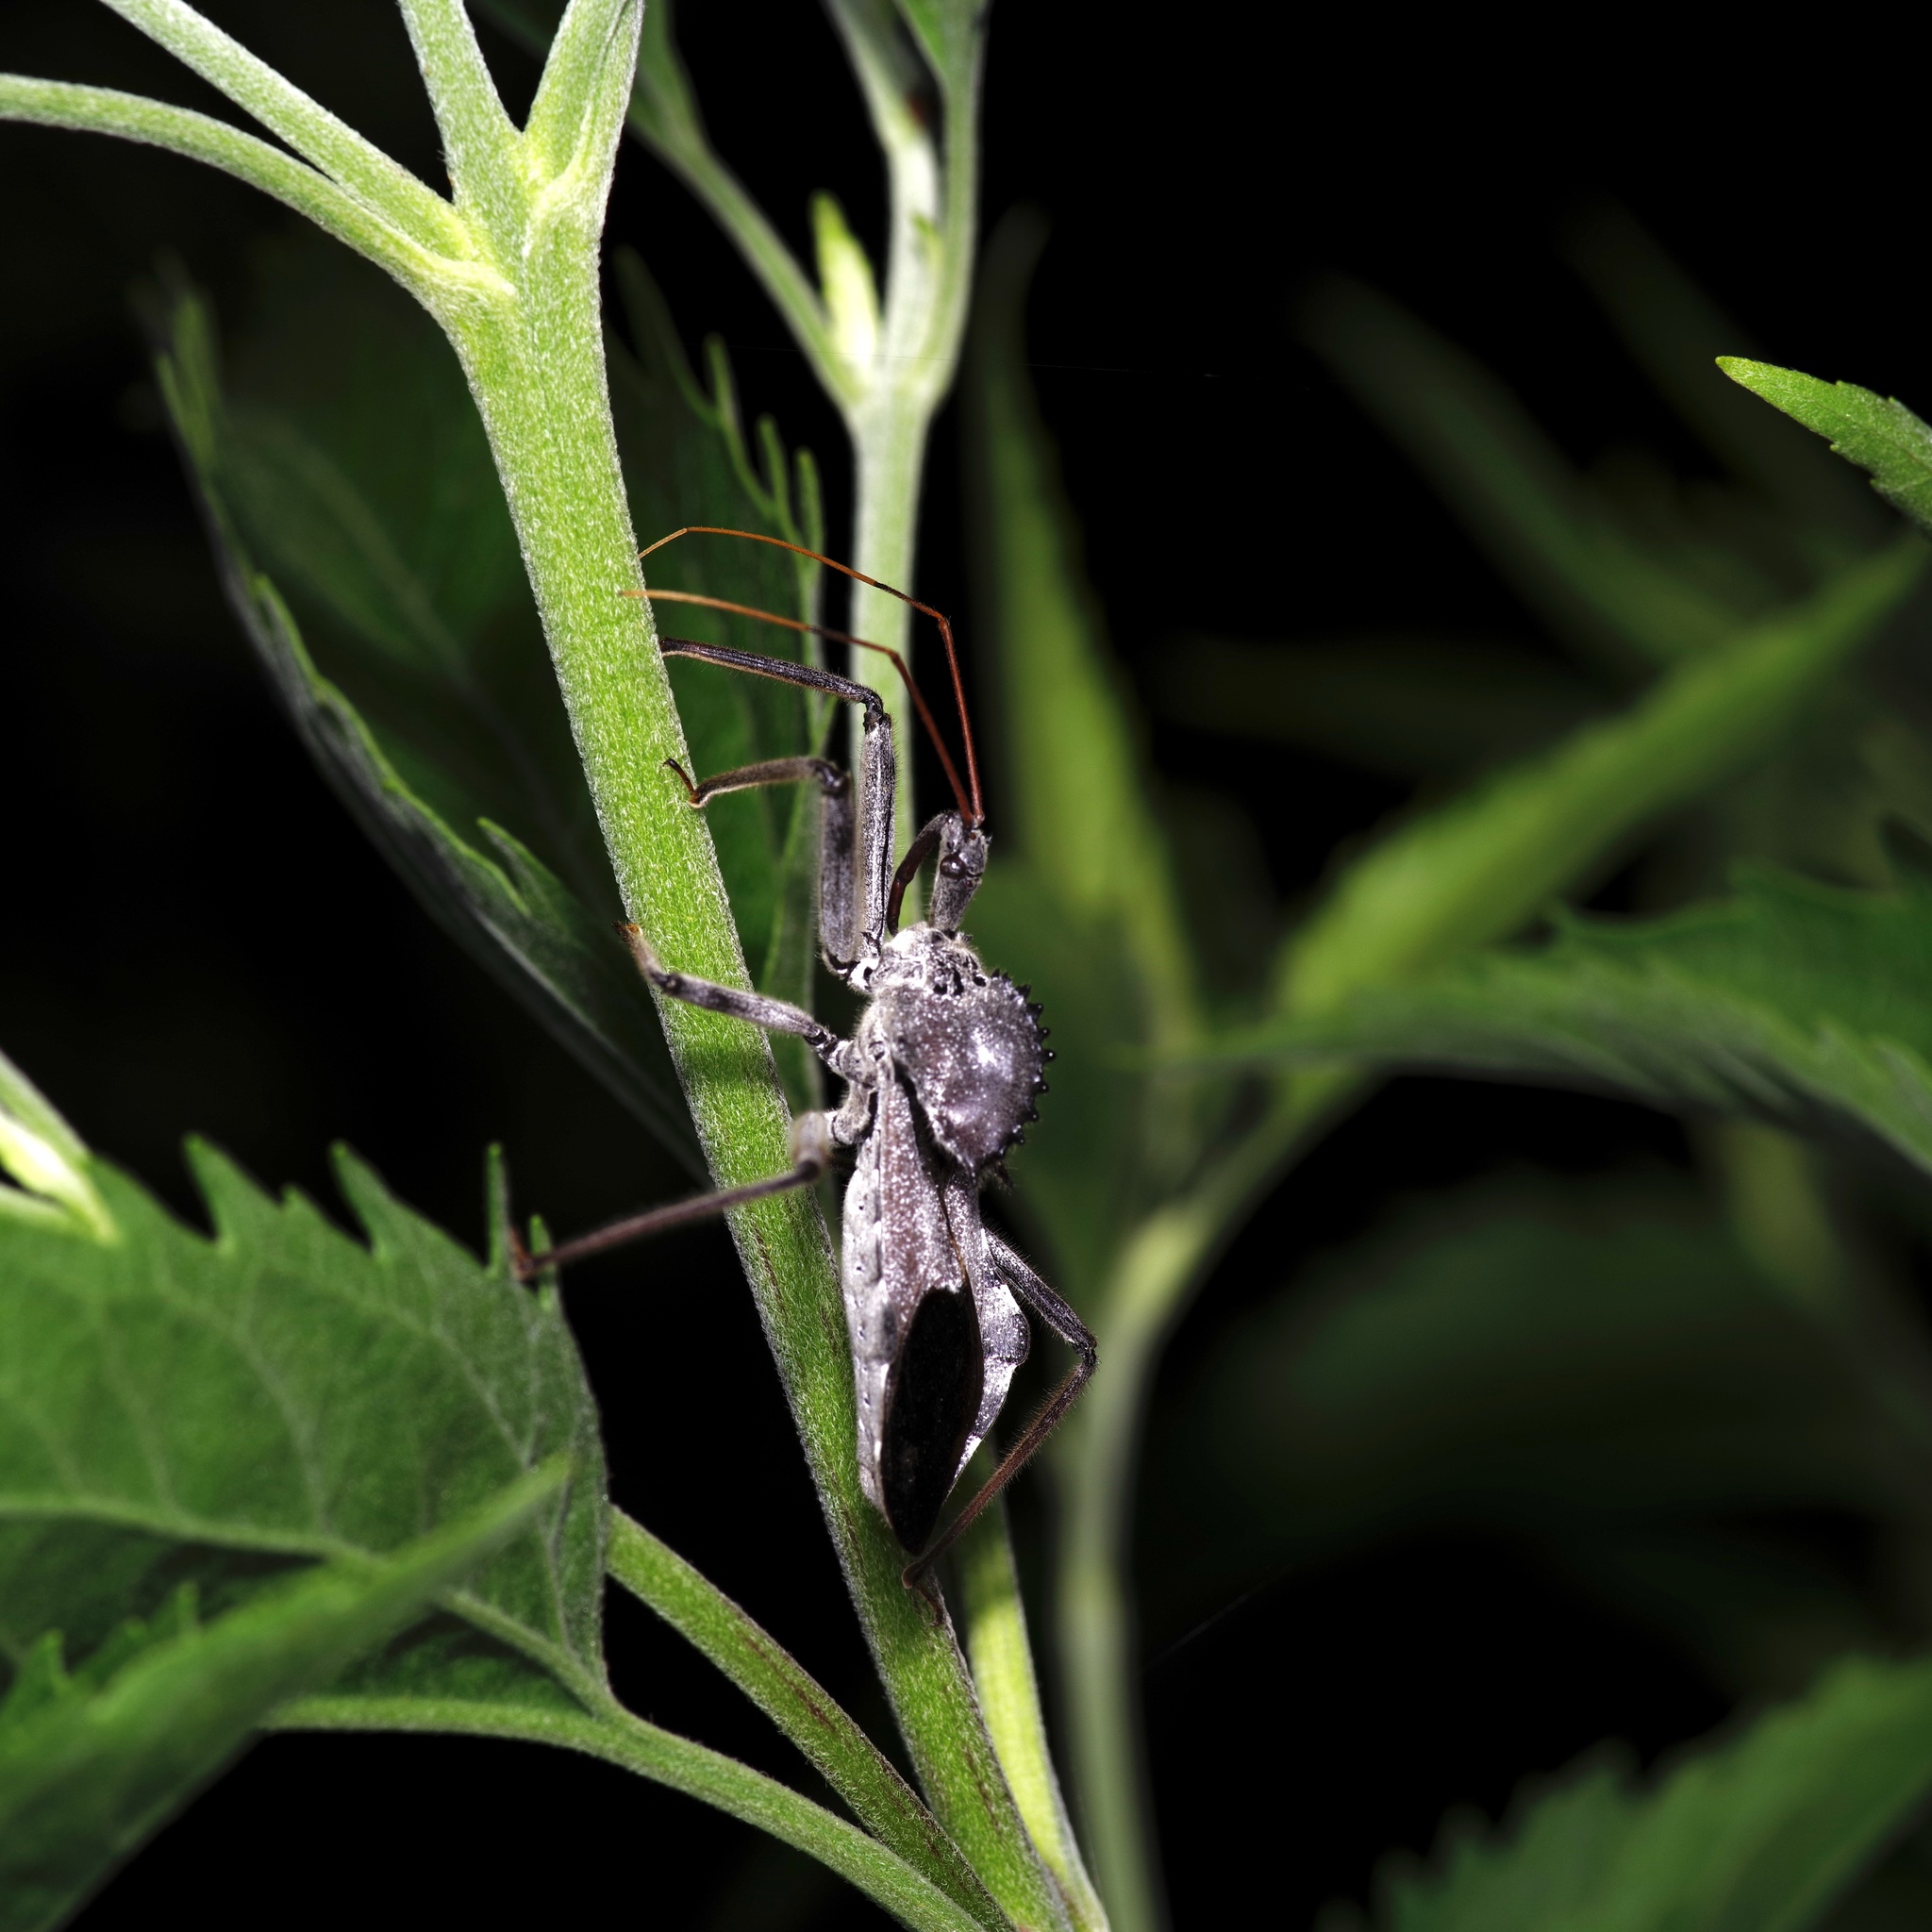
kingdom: Animalia
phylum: Arthropoda
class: Insecta
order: Hemiptera
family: Reduviidae
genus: Arilus
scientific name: Arilus cristatus
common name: North american wheel bug
